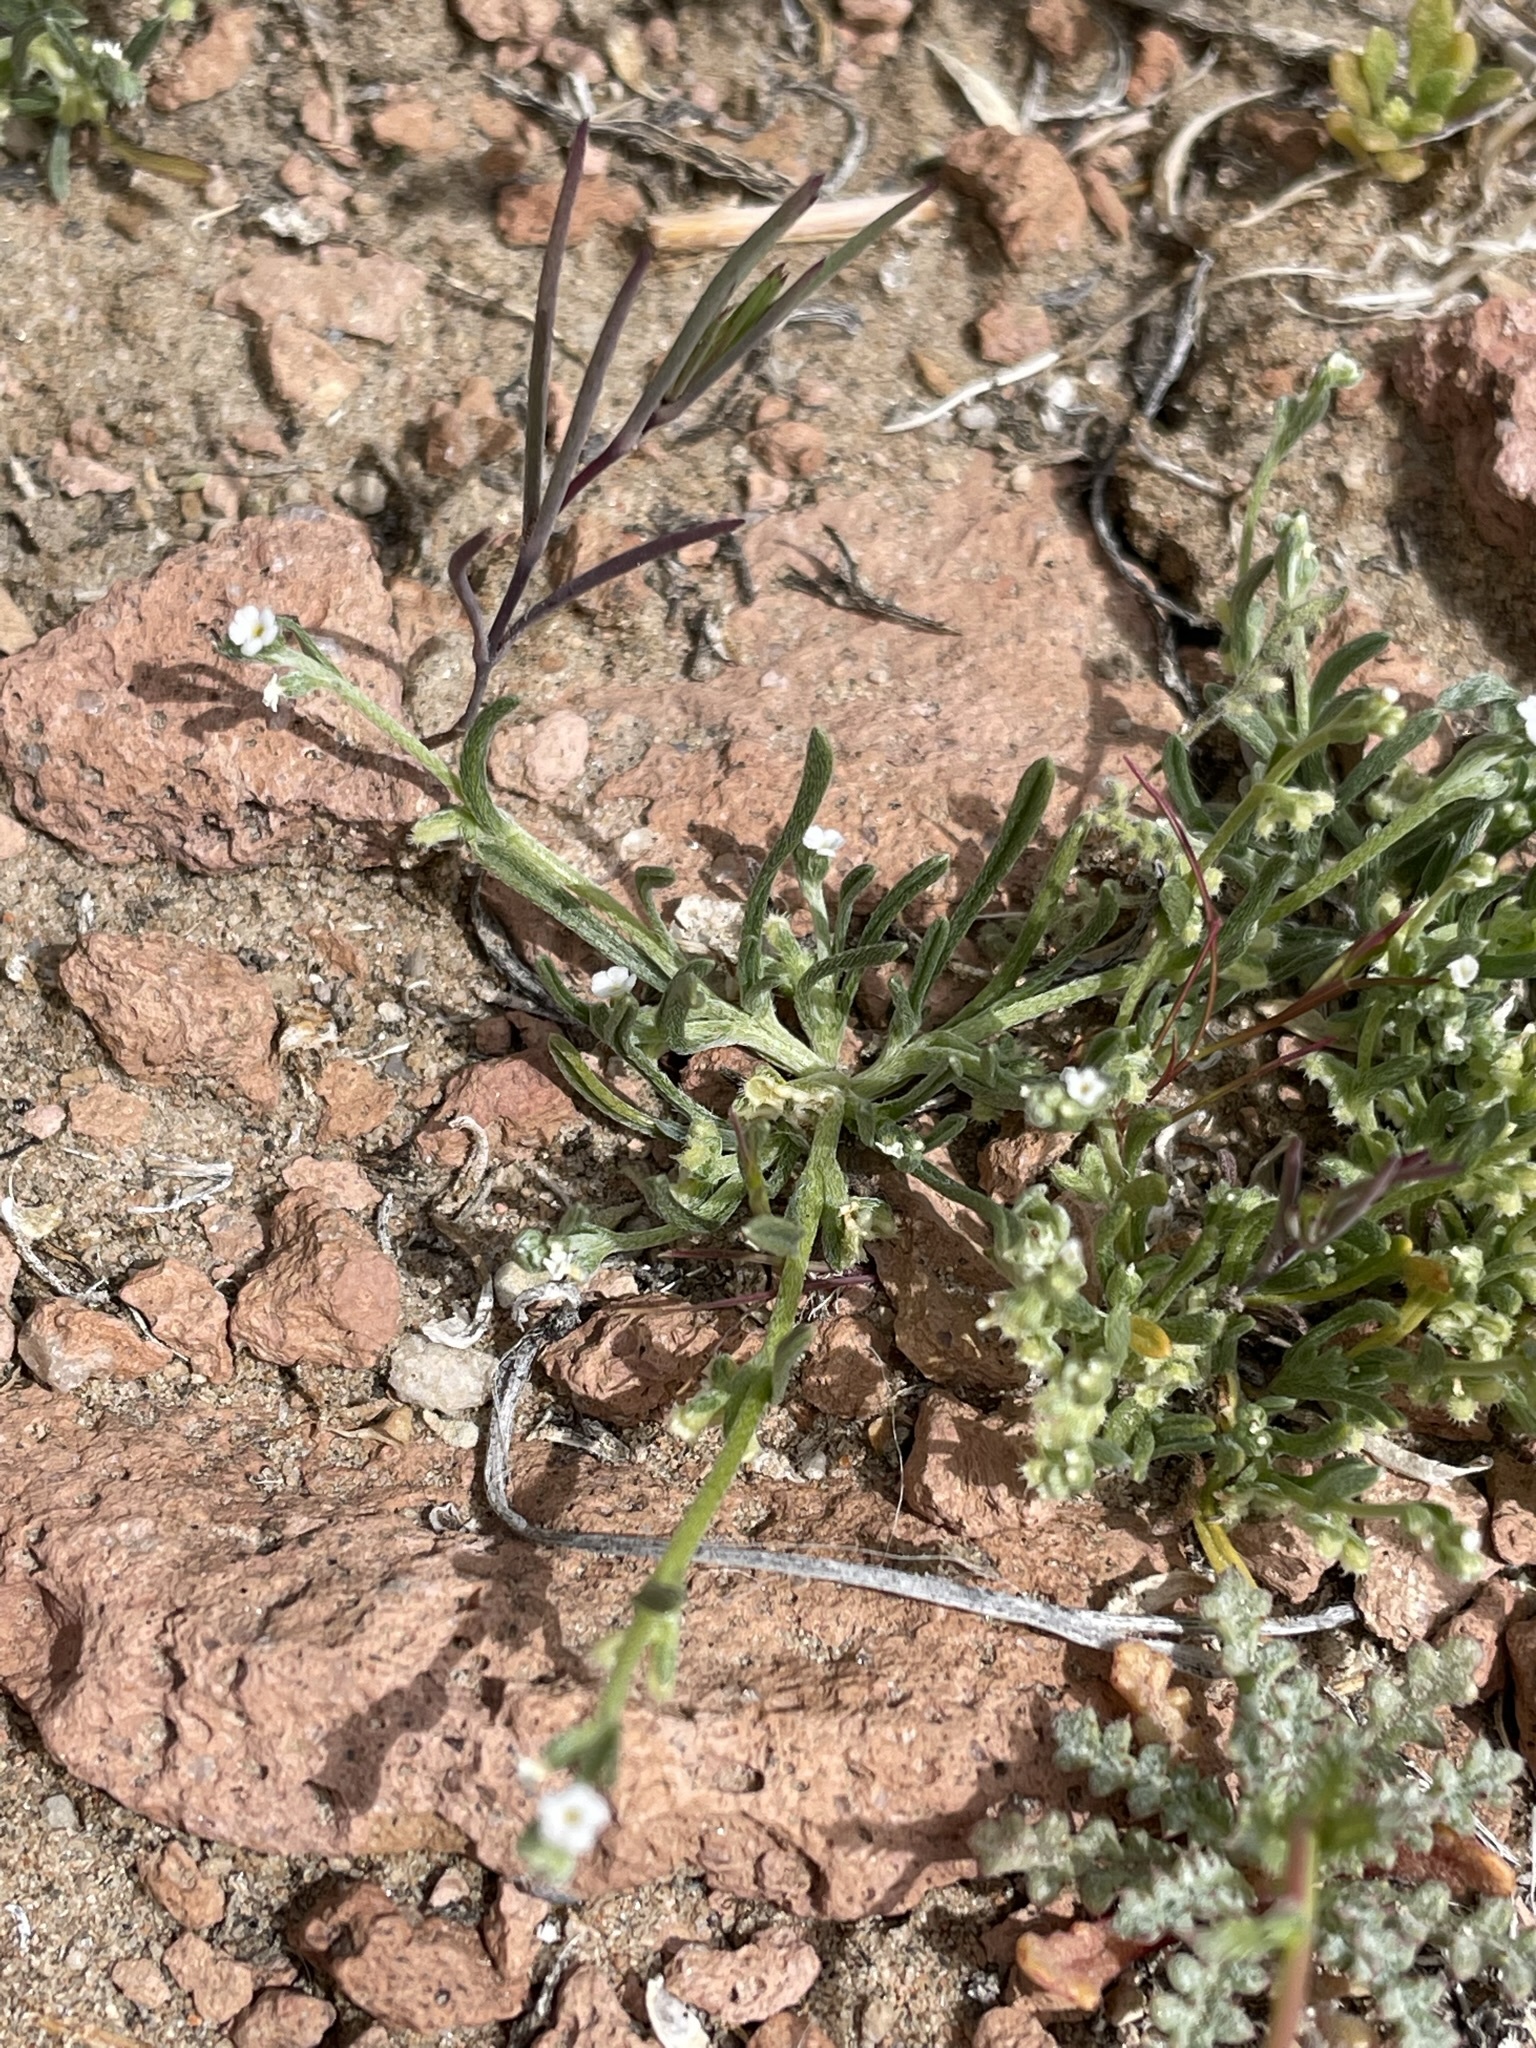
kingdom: Plantae
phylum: Tracheophyta
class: Magnoliopsida
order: Boraginales
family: Boraginaceae
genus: Pectocarya
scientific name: Pectocarya penicillata
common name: Short-leaved combseed
